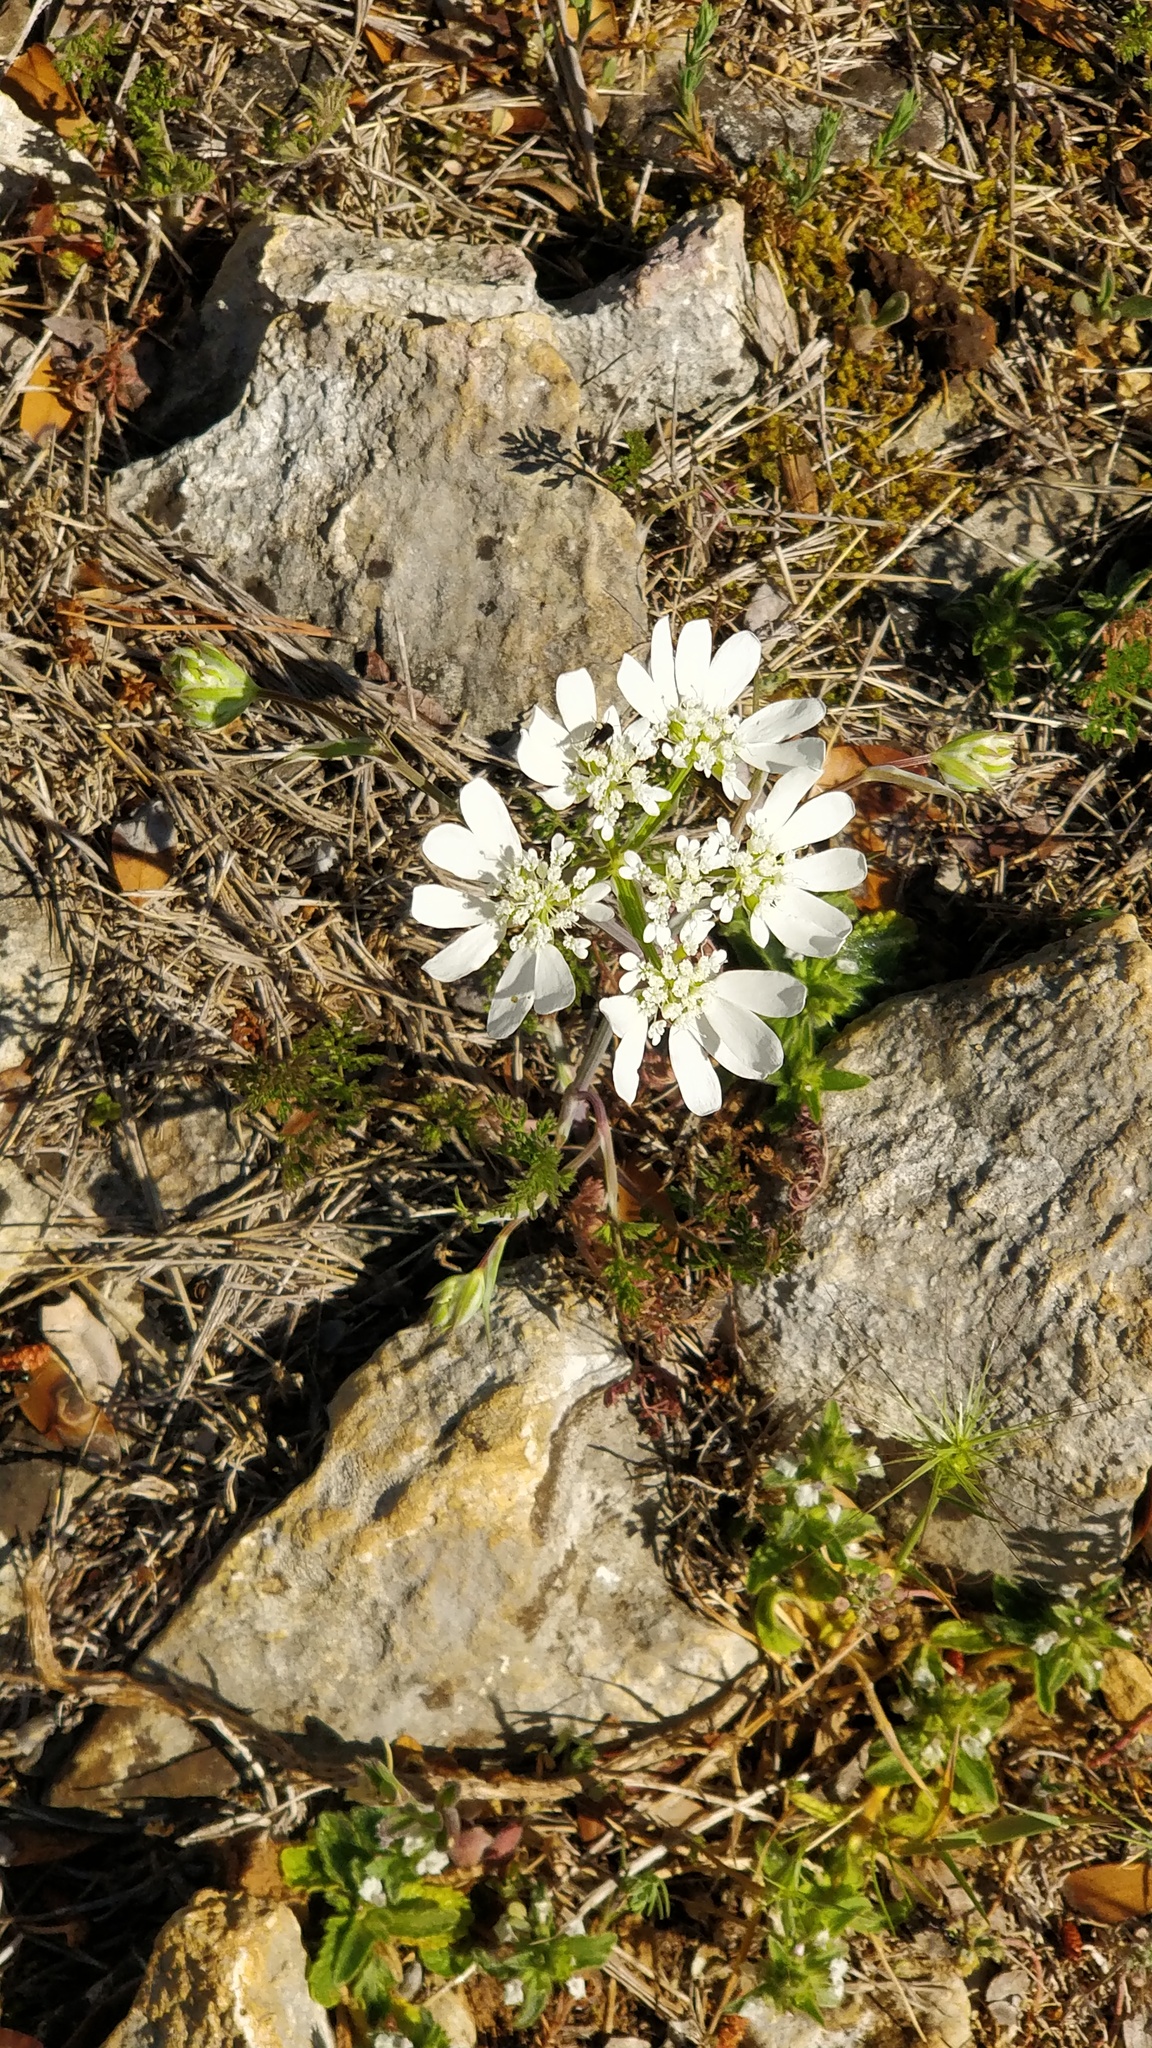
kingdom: Plantae
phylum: Tracheophyta
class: Magnoliopsida
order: Apiales
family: Apiaceae
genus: Orlaya
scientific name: Orlaya grandiflora
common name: White lace flower
